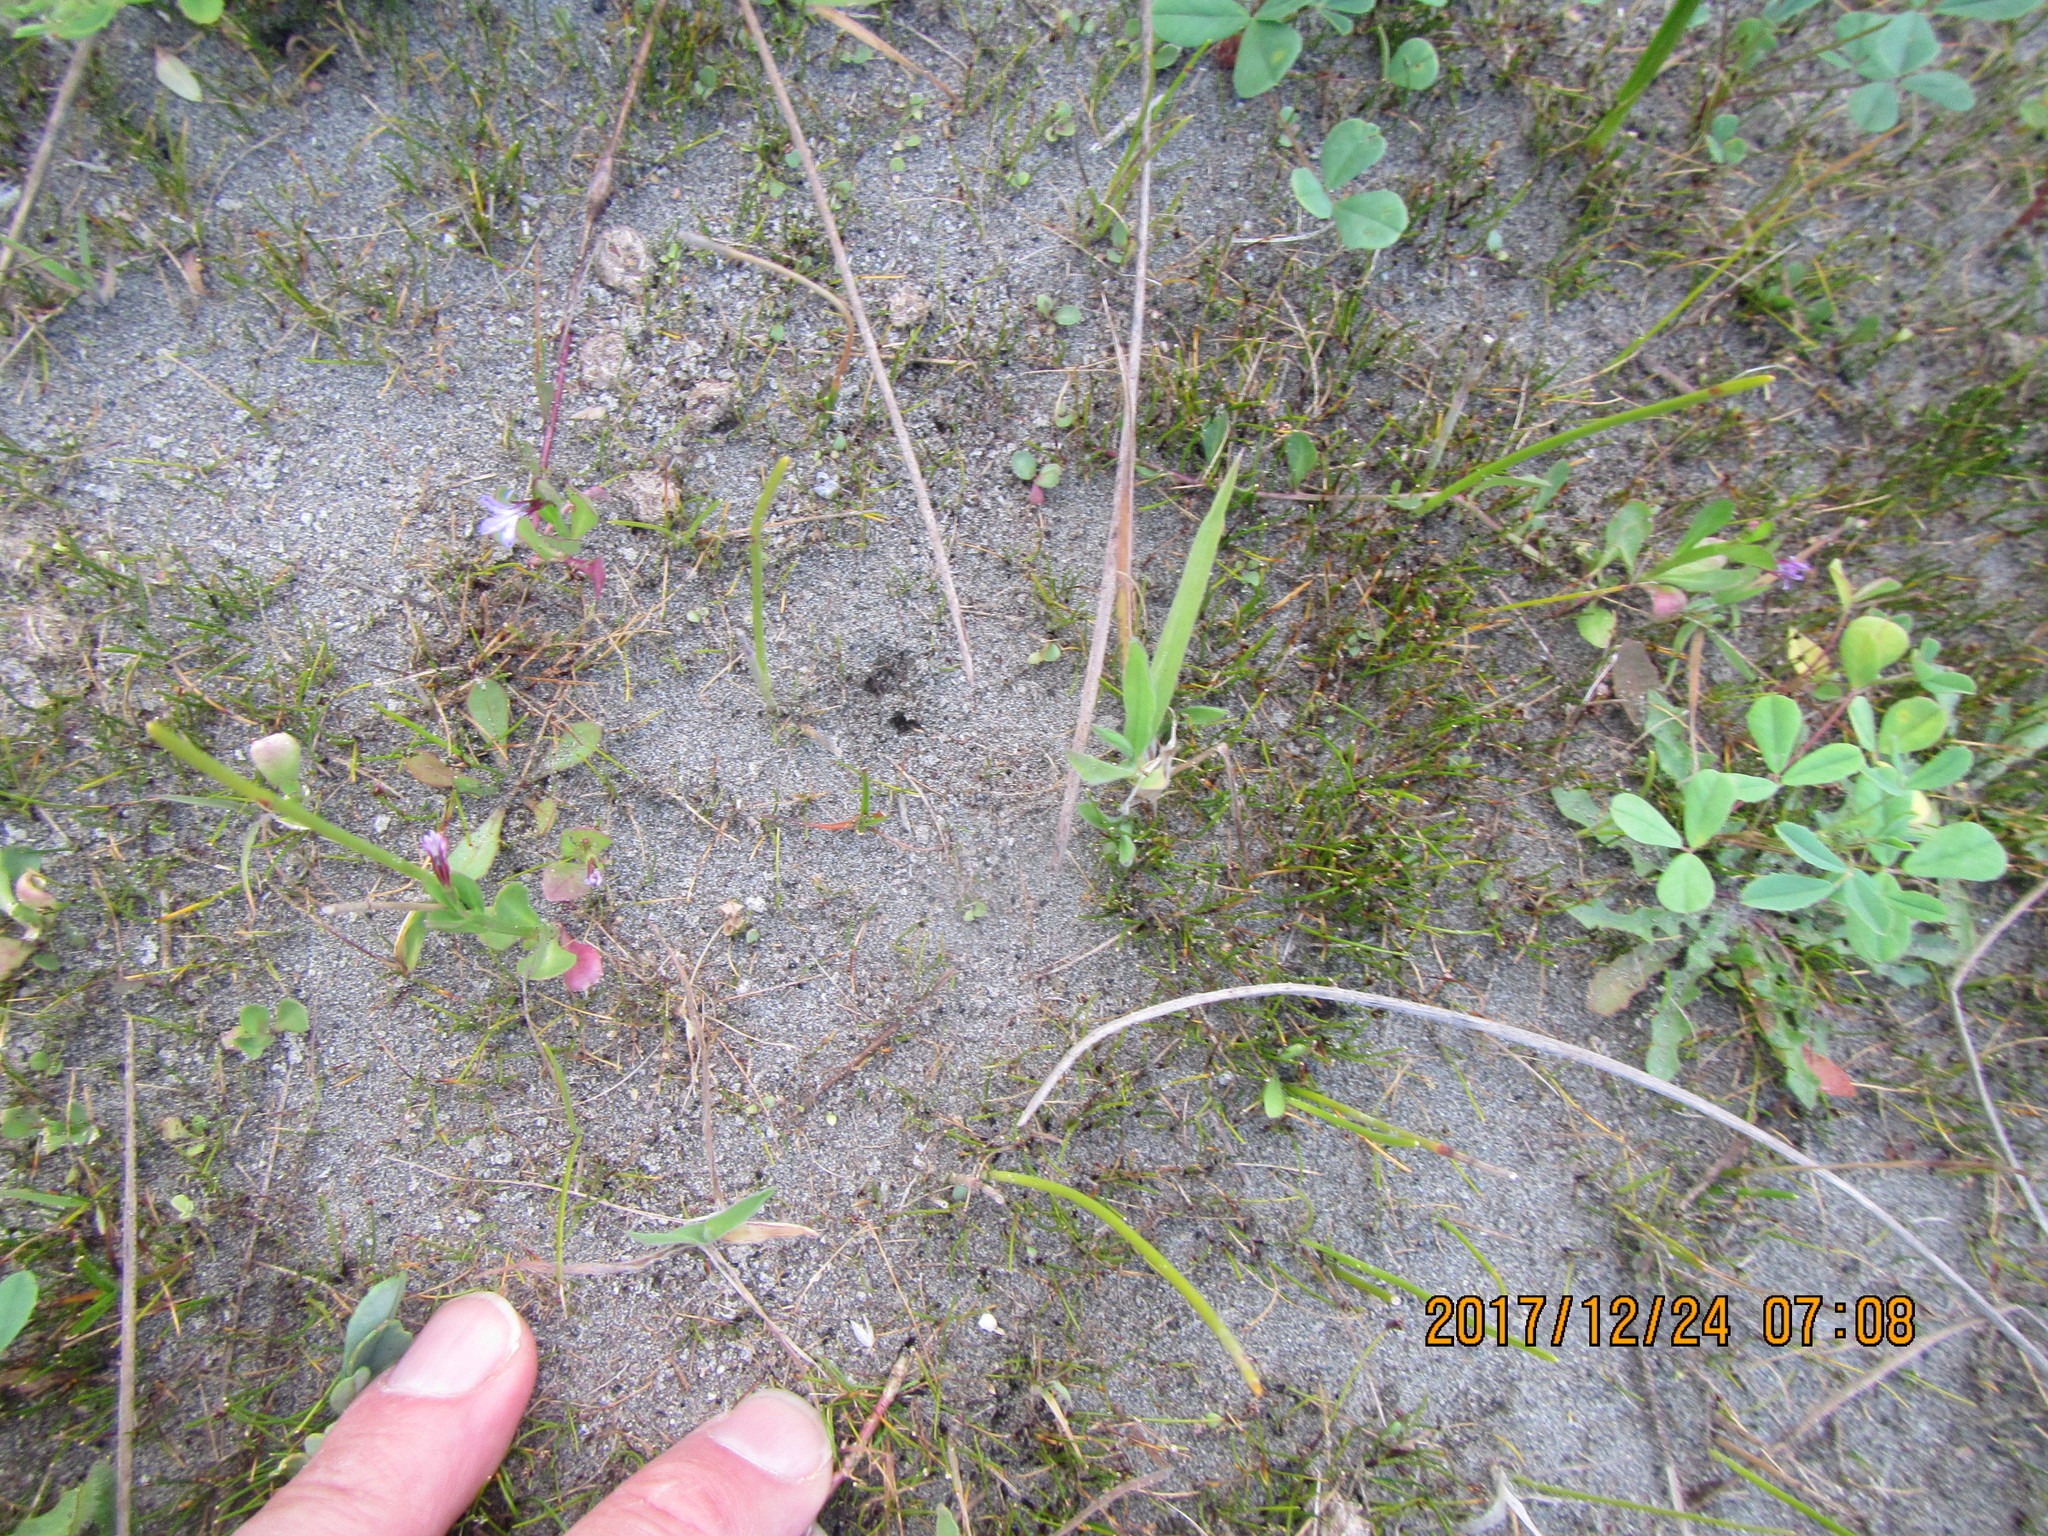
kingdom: Plantae
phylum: Tracheophyta
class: Magnoliopsida
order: Asterales
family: Campanulaceae
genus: Lobelia
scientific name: Lobelia anceps
